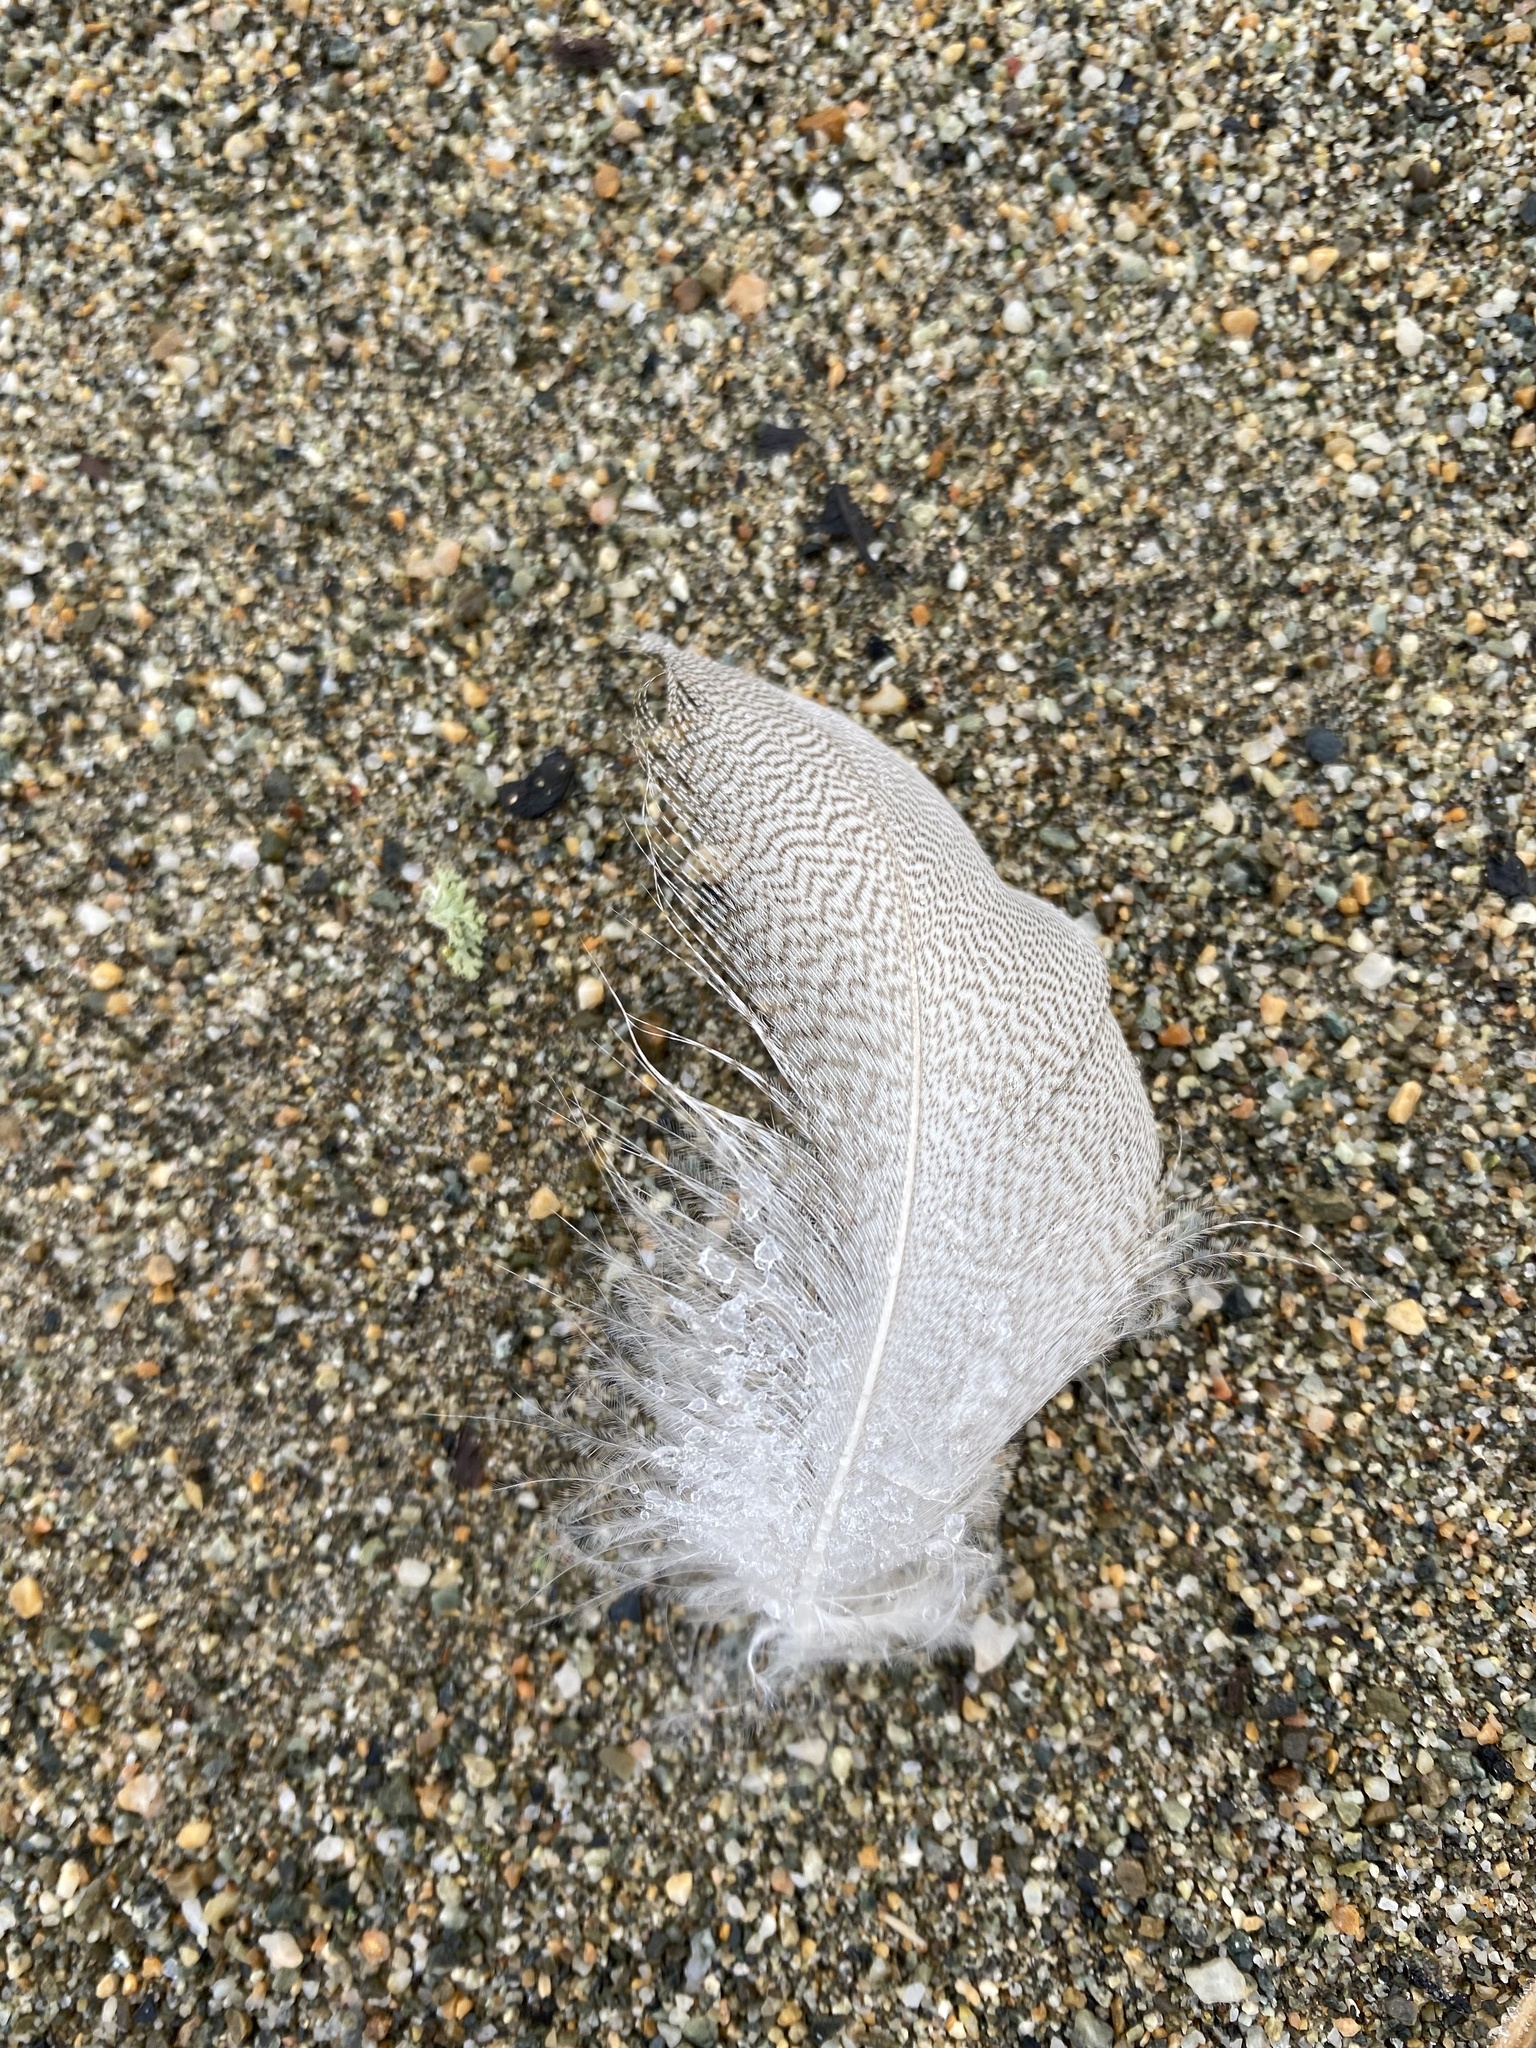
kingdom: Animalia
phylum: Chordata
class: Aves
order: Anseriformes
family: Anatidae
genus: Anas
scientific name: Anas platyrhynchos
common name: Mallard
